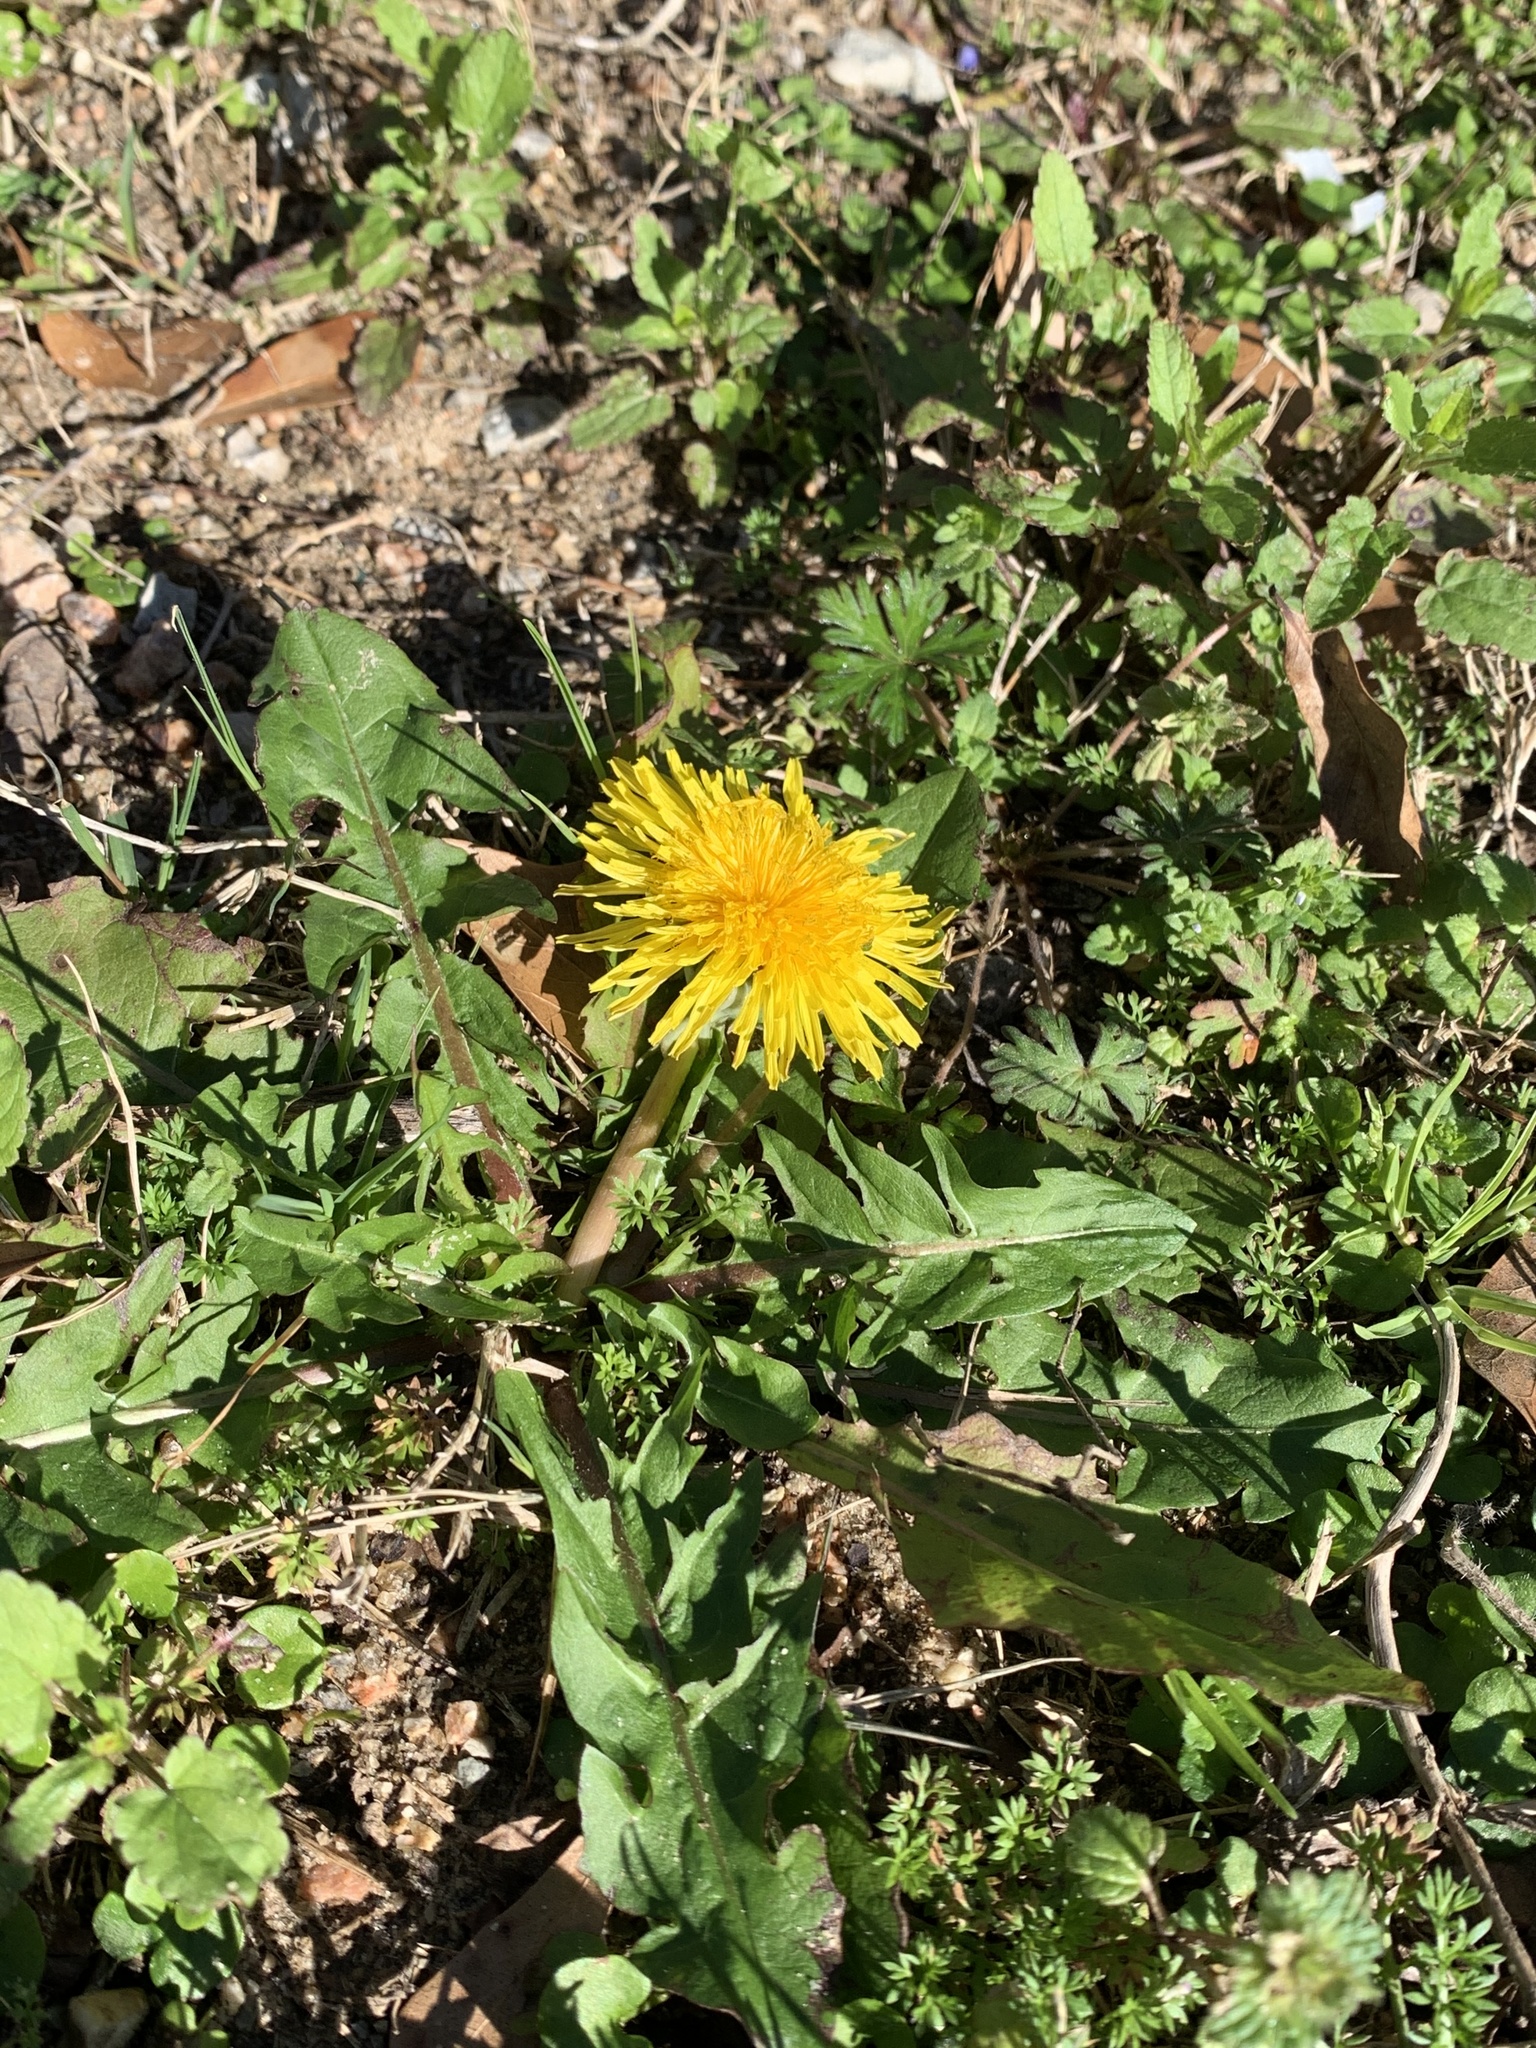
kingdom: Plantae
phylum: Tracheophyta
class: Magnoliopsida
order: Asterales
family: Asteraceae
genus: Taraxacum
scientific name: Taraxacum officinale
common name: Common dandelion
